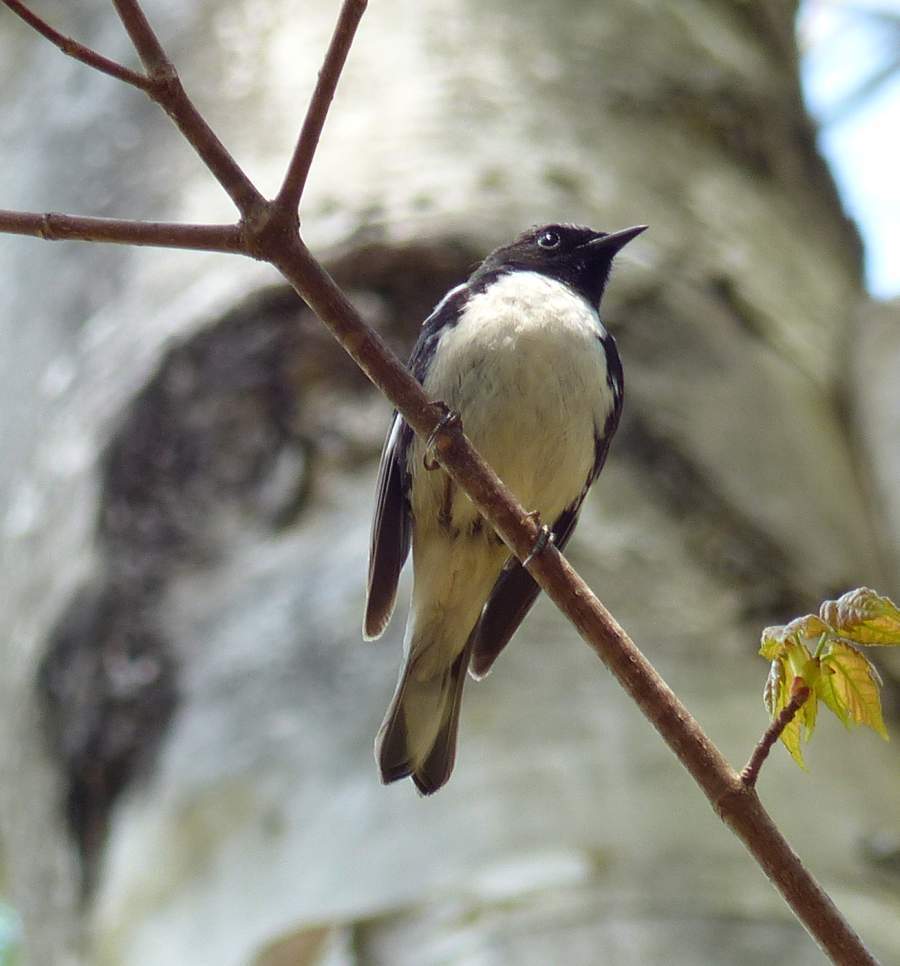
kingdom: Animalia
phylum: Chordata
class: Aves
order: Passeriformes
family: Parulidae
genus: Setophaga
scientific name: Setophaga caerulescens
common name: Black-throated blue warbler
